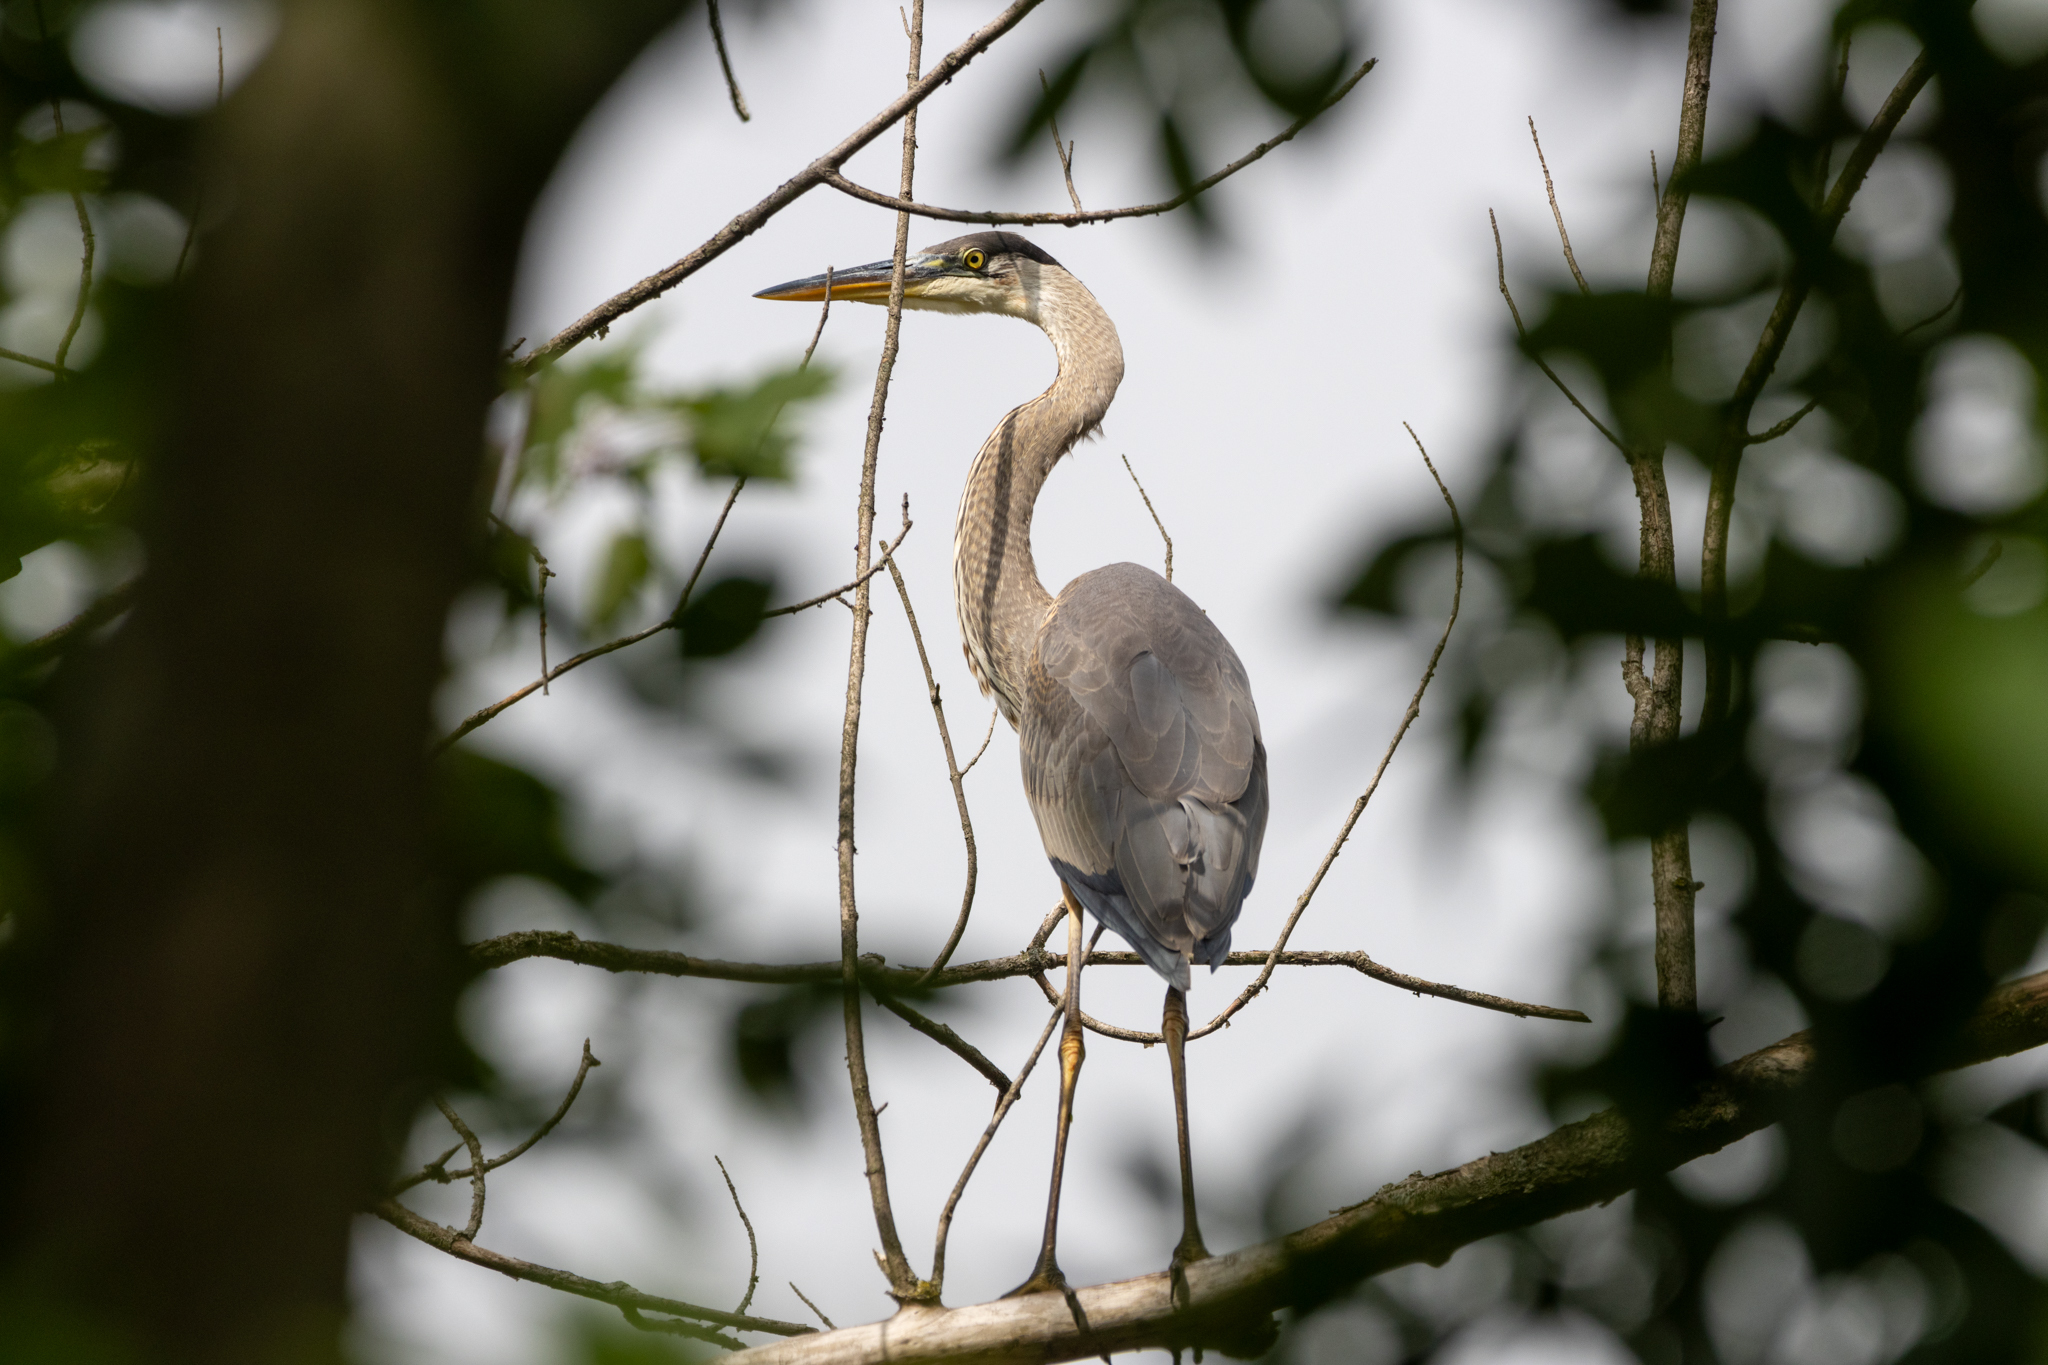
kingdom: Animalia
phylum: Chordata
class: Aves
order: Pelecaniformes
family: Ardeidae
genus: Ardea
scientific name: Ardea herodias
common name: Great blue heron
